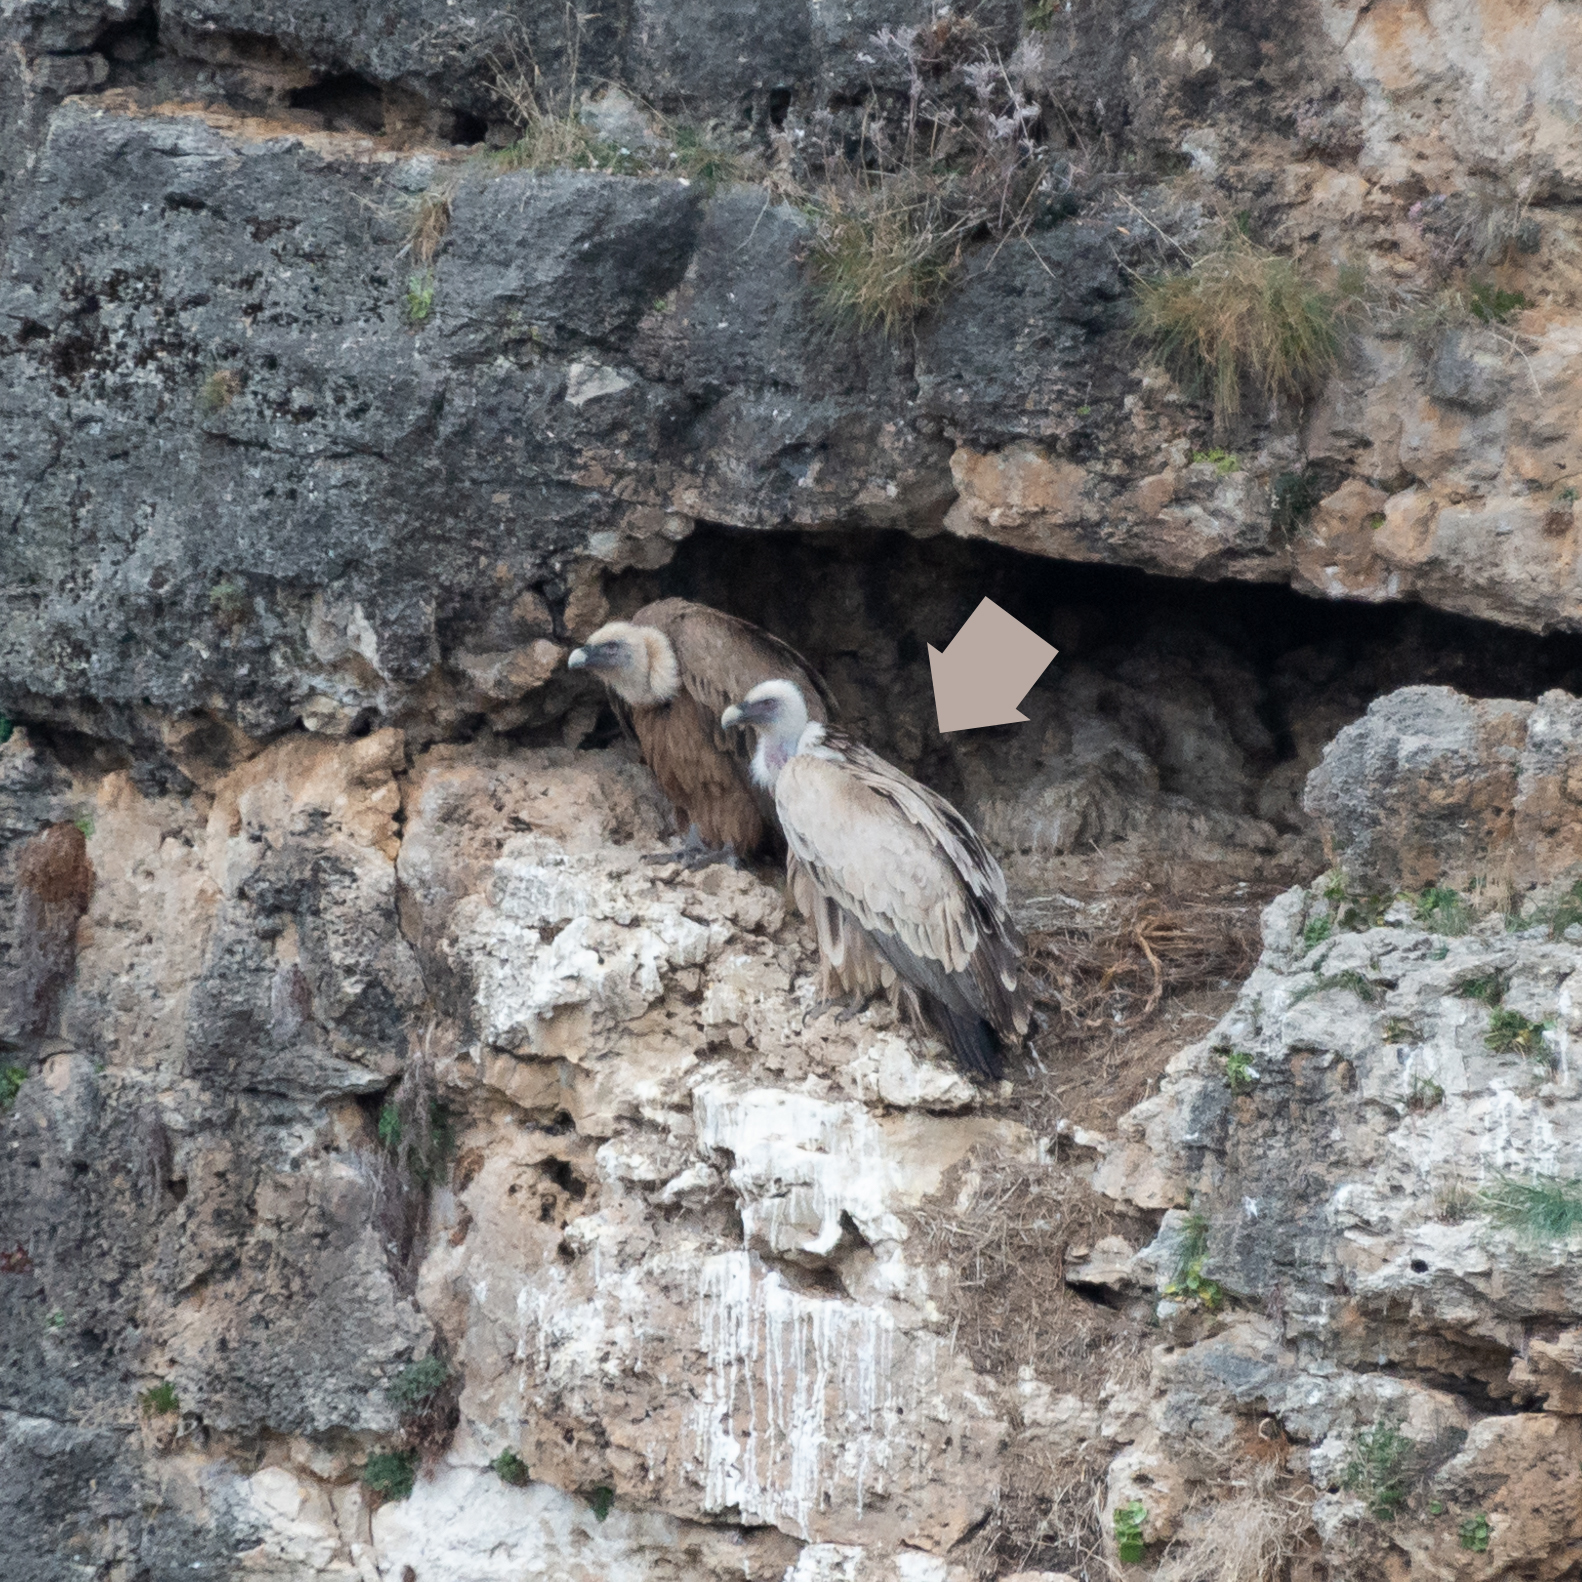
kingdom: Animalia
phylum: Chordata
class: Aves
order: Accipitriformes
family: Accipitridae
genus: Gyps
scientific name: Gyps fulvus
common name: Griffon vulture
